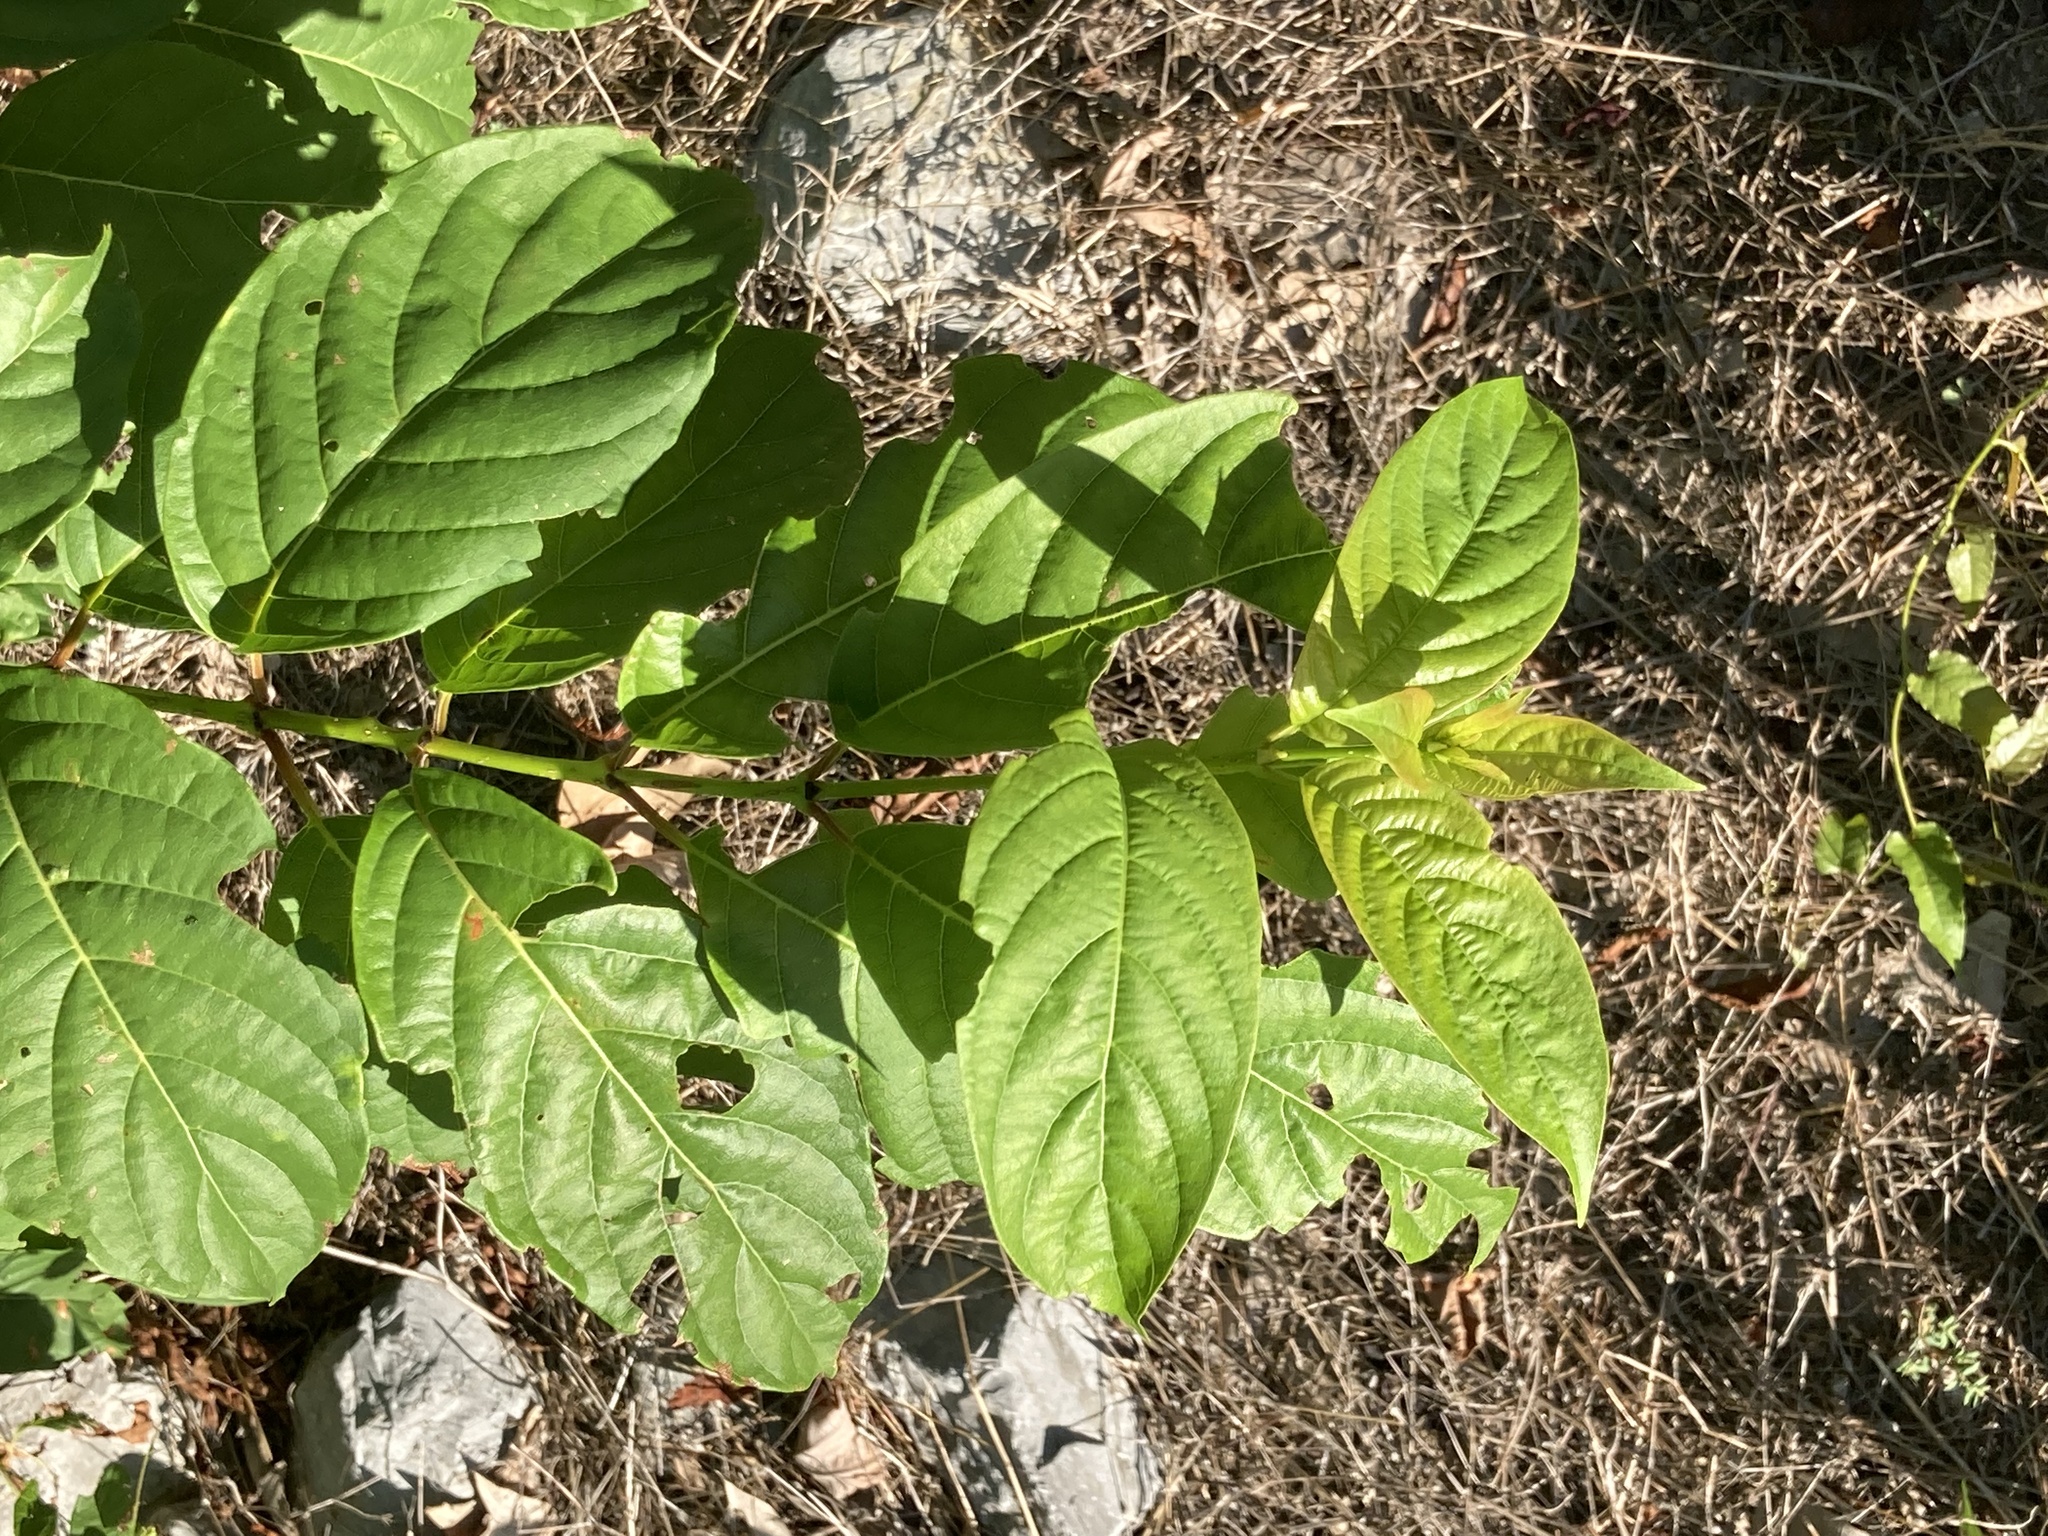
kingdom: Plantae
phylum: Tracheophyta
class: Magnoliopsida
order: Gentianales
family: Rubiaceae
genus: Cephalanthus
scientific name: Cephalanthus occidentalis
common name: Button-willow
